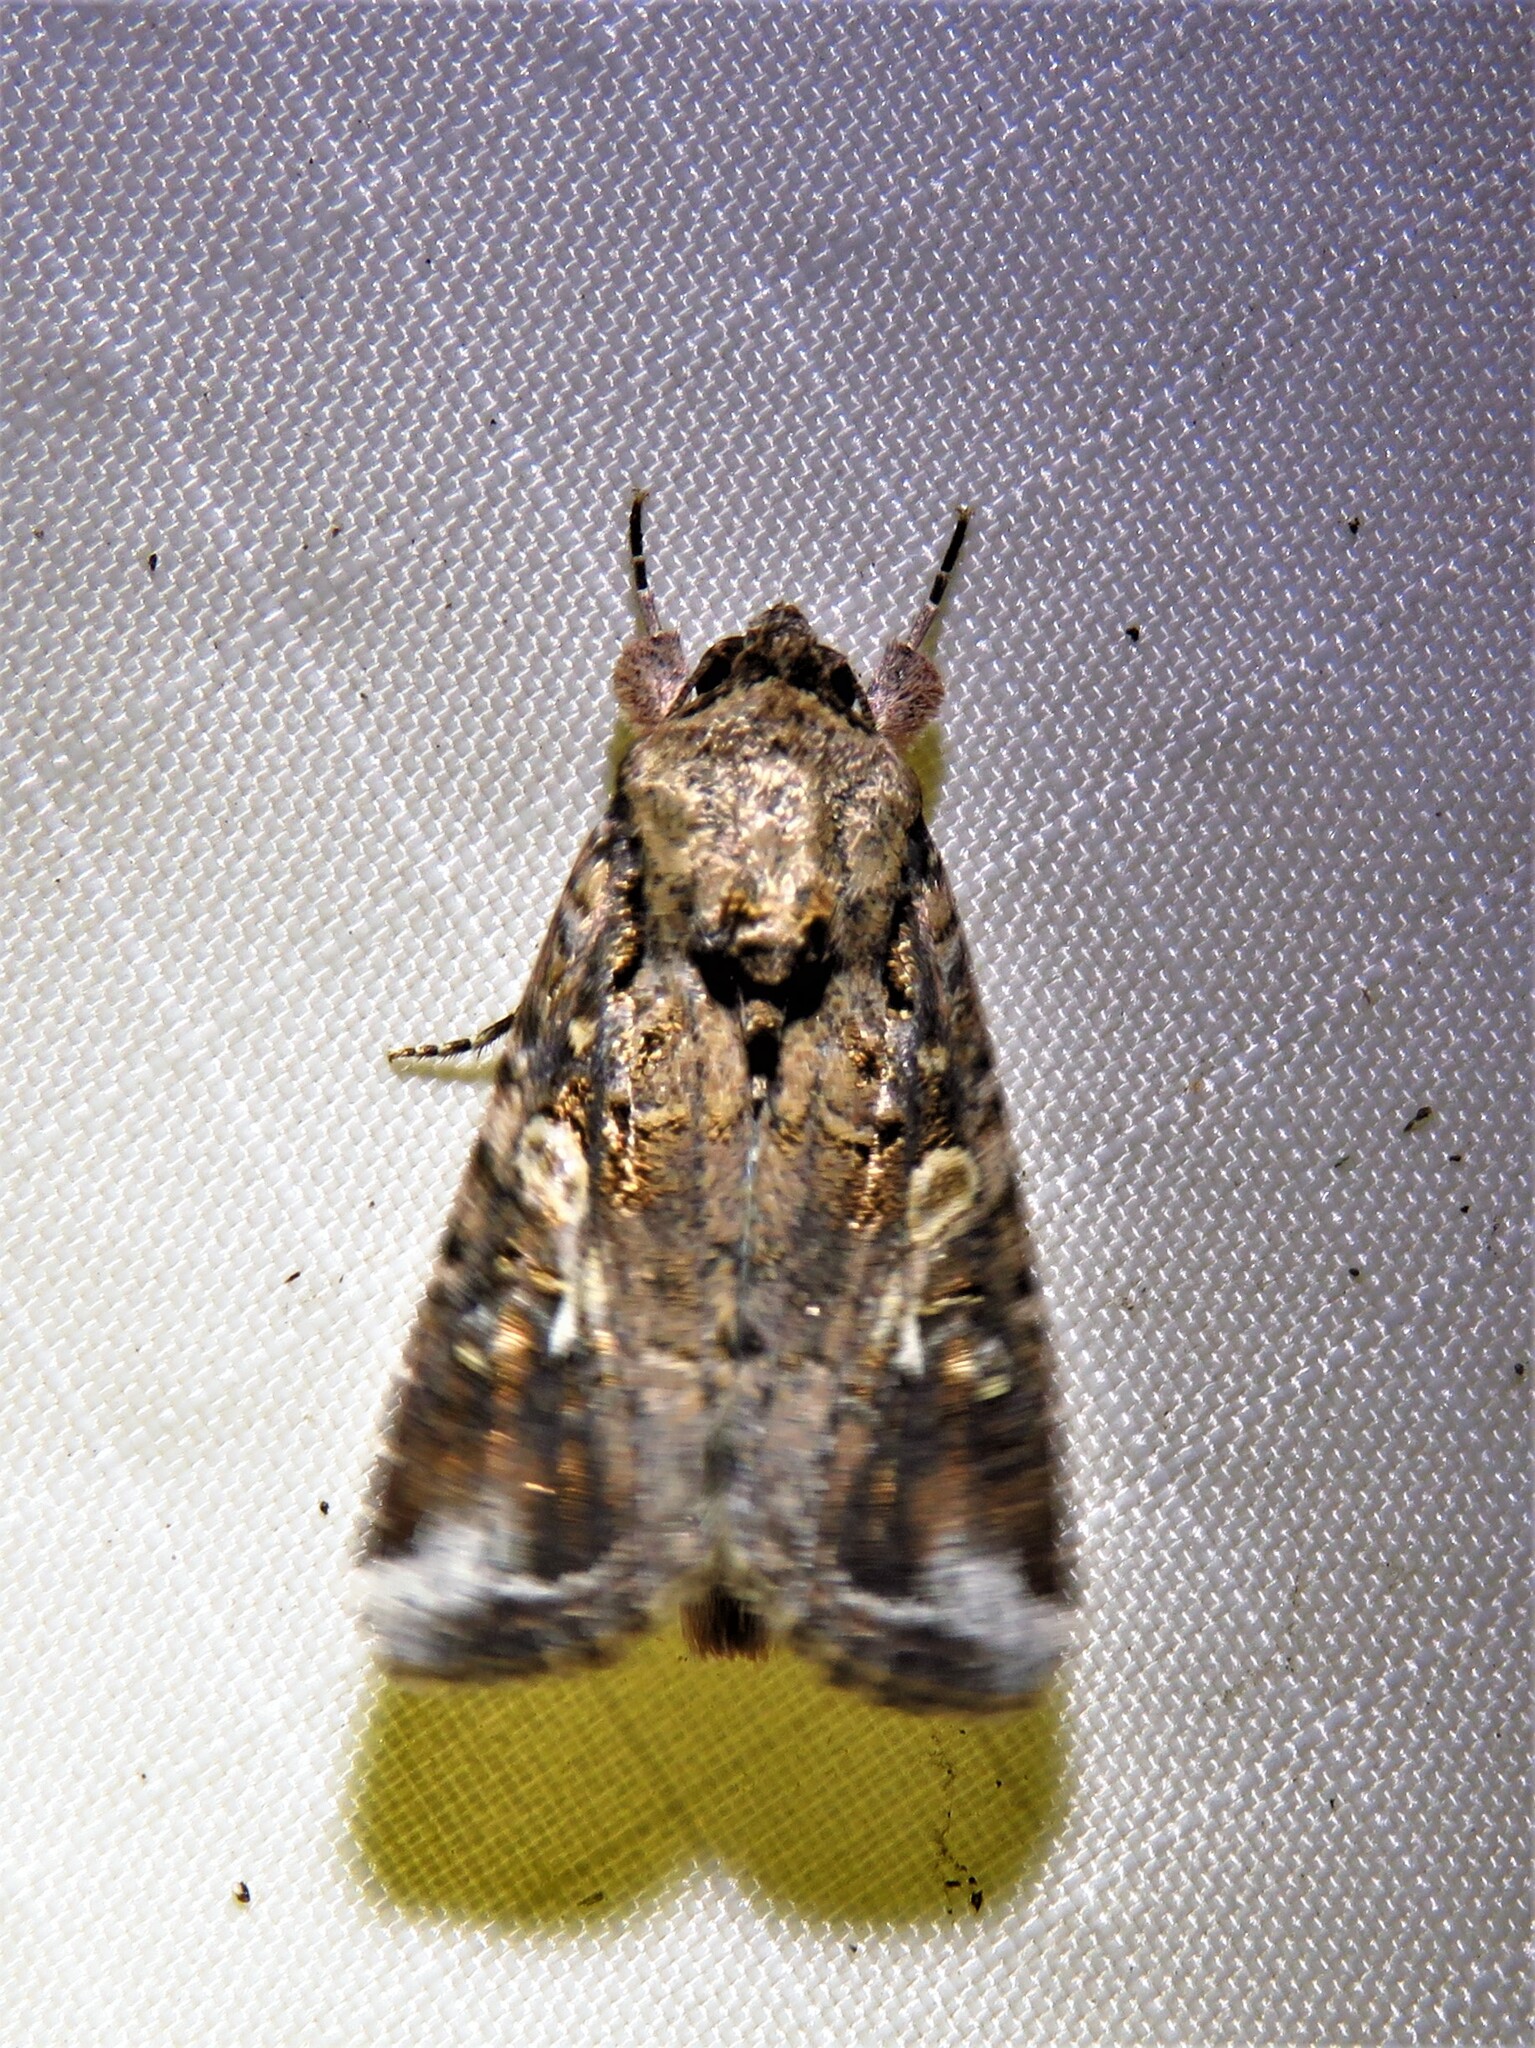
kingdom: Animalia
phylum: Arthropoda
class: Insecta
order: Lepidoptera
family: Noctuidae
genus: Spodoptera
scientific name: Spodoptera ornithogalli
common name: Yellow-striped armyworm
